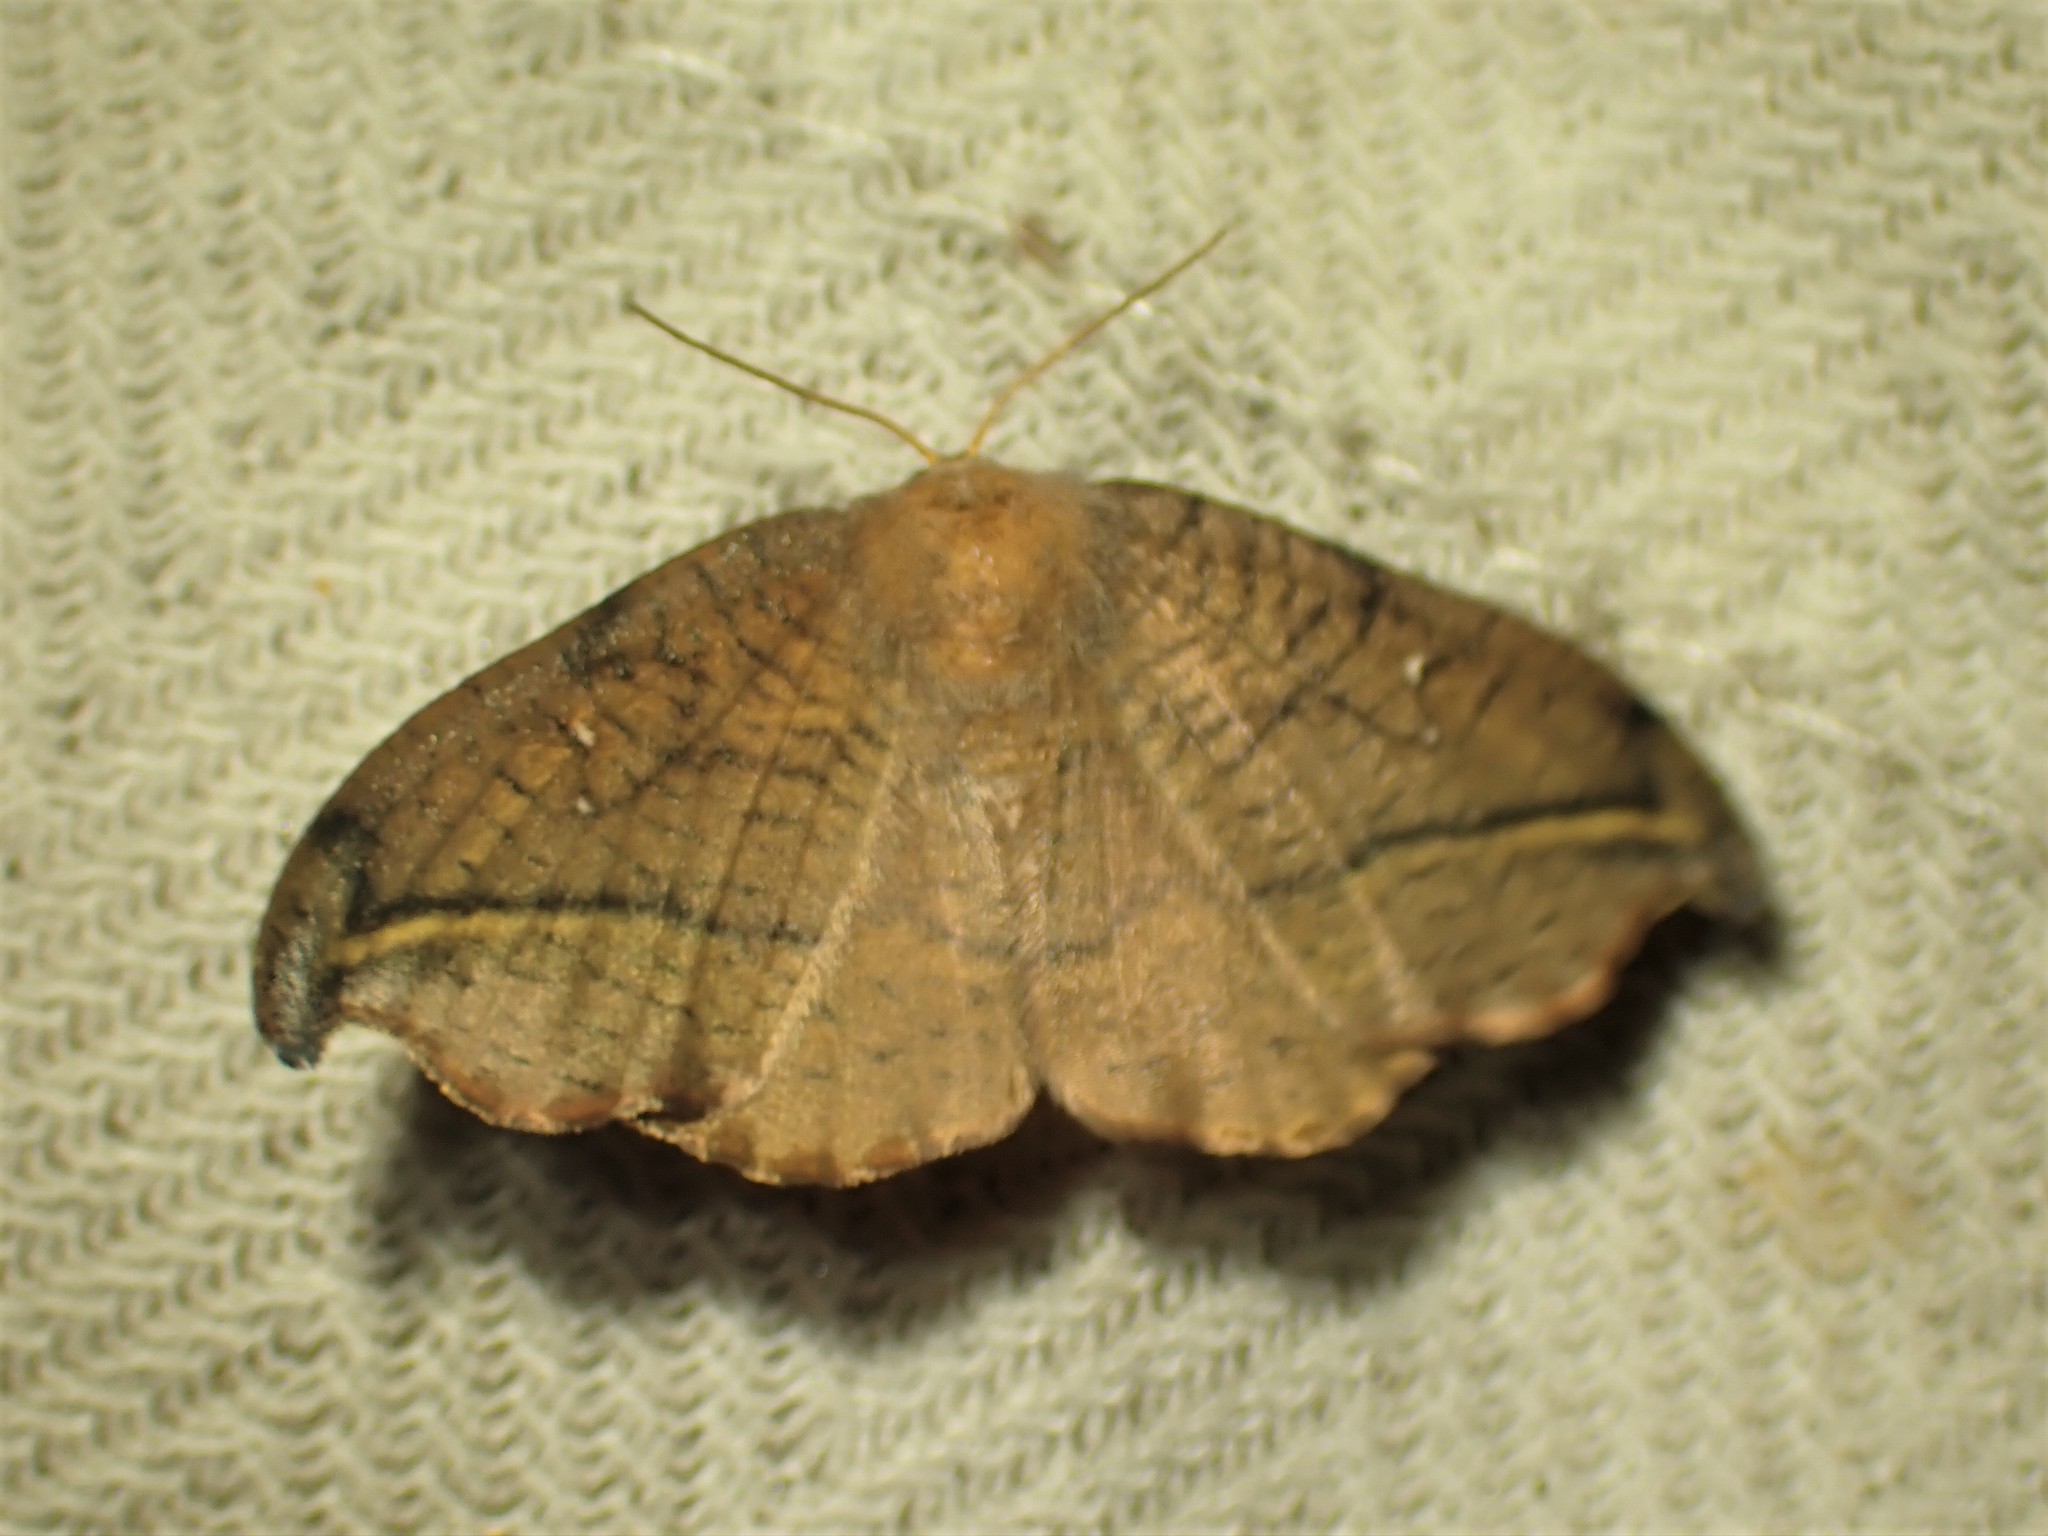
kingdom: Animalia
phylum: Arthropoda
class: Insecta
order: Lepidoptera
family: Drepanidae
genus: Oreta
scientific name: Oreta rosea
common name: Rose hooktip
